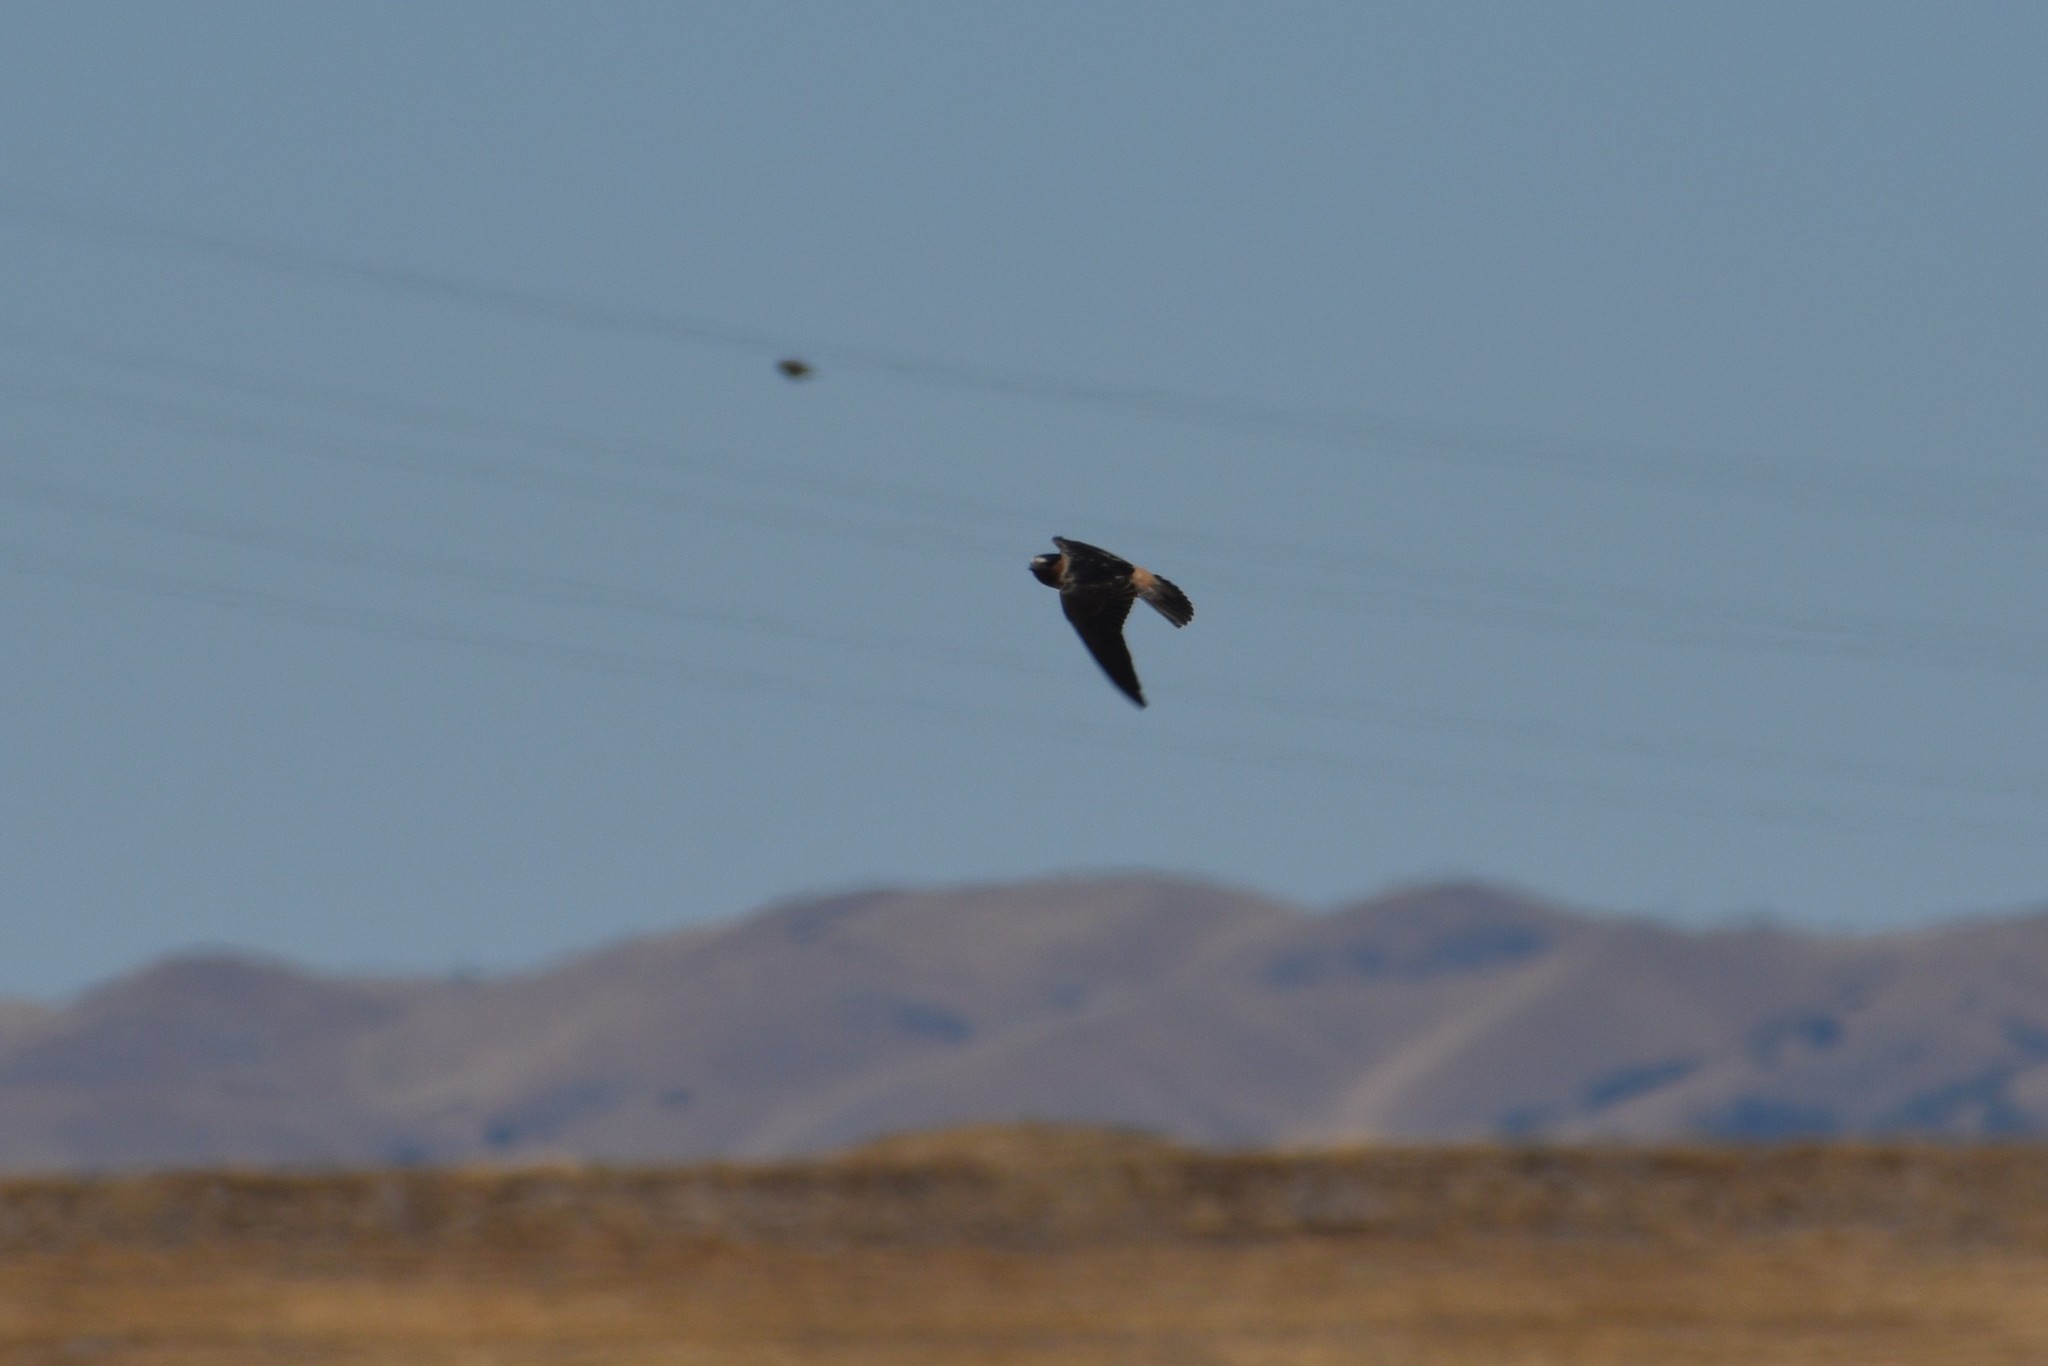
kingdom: Animalia
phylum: Chordata
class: Aves
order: Passeriformes
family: Hirundinidae
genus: Petrochelidon
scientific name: Petrochelidon pyrrhonota
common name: American cliff swallow
